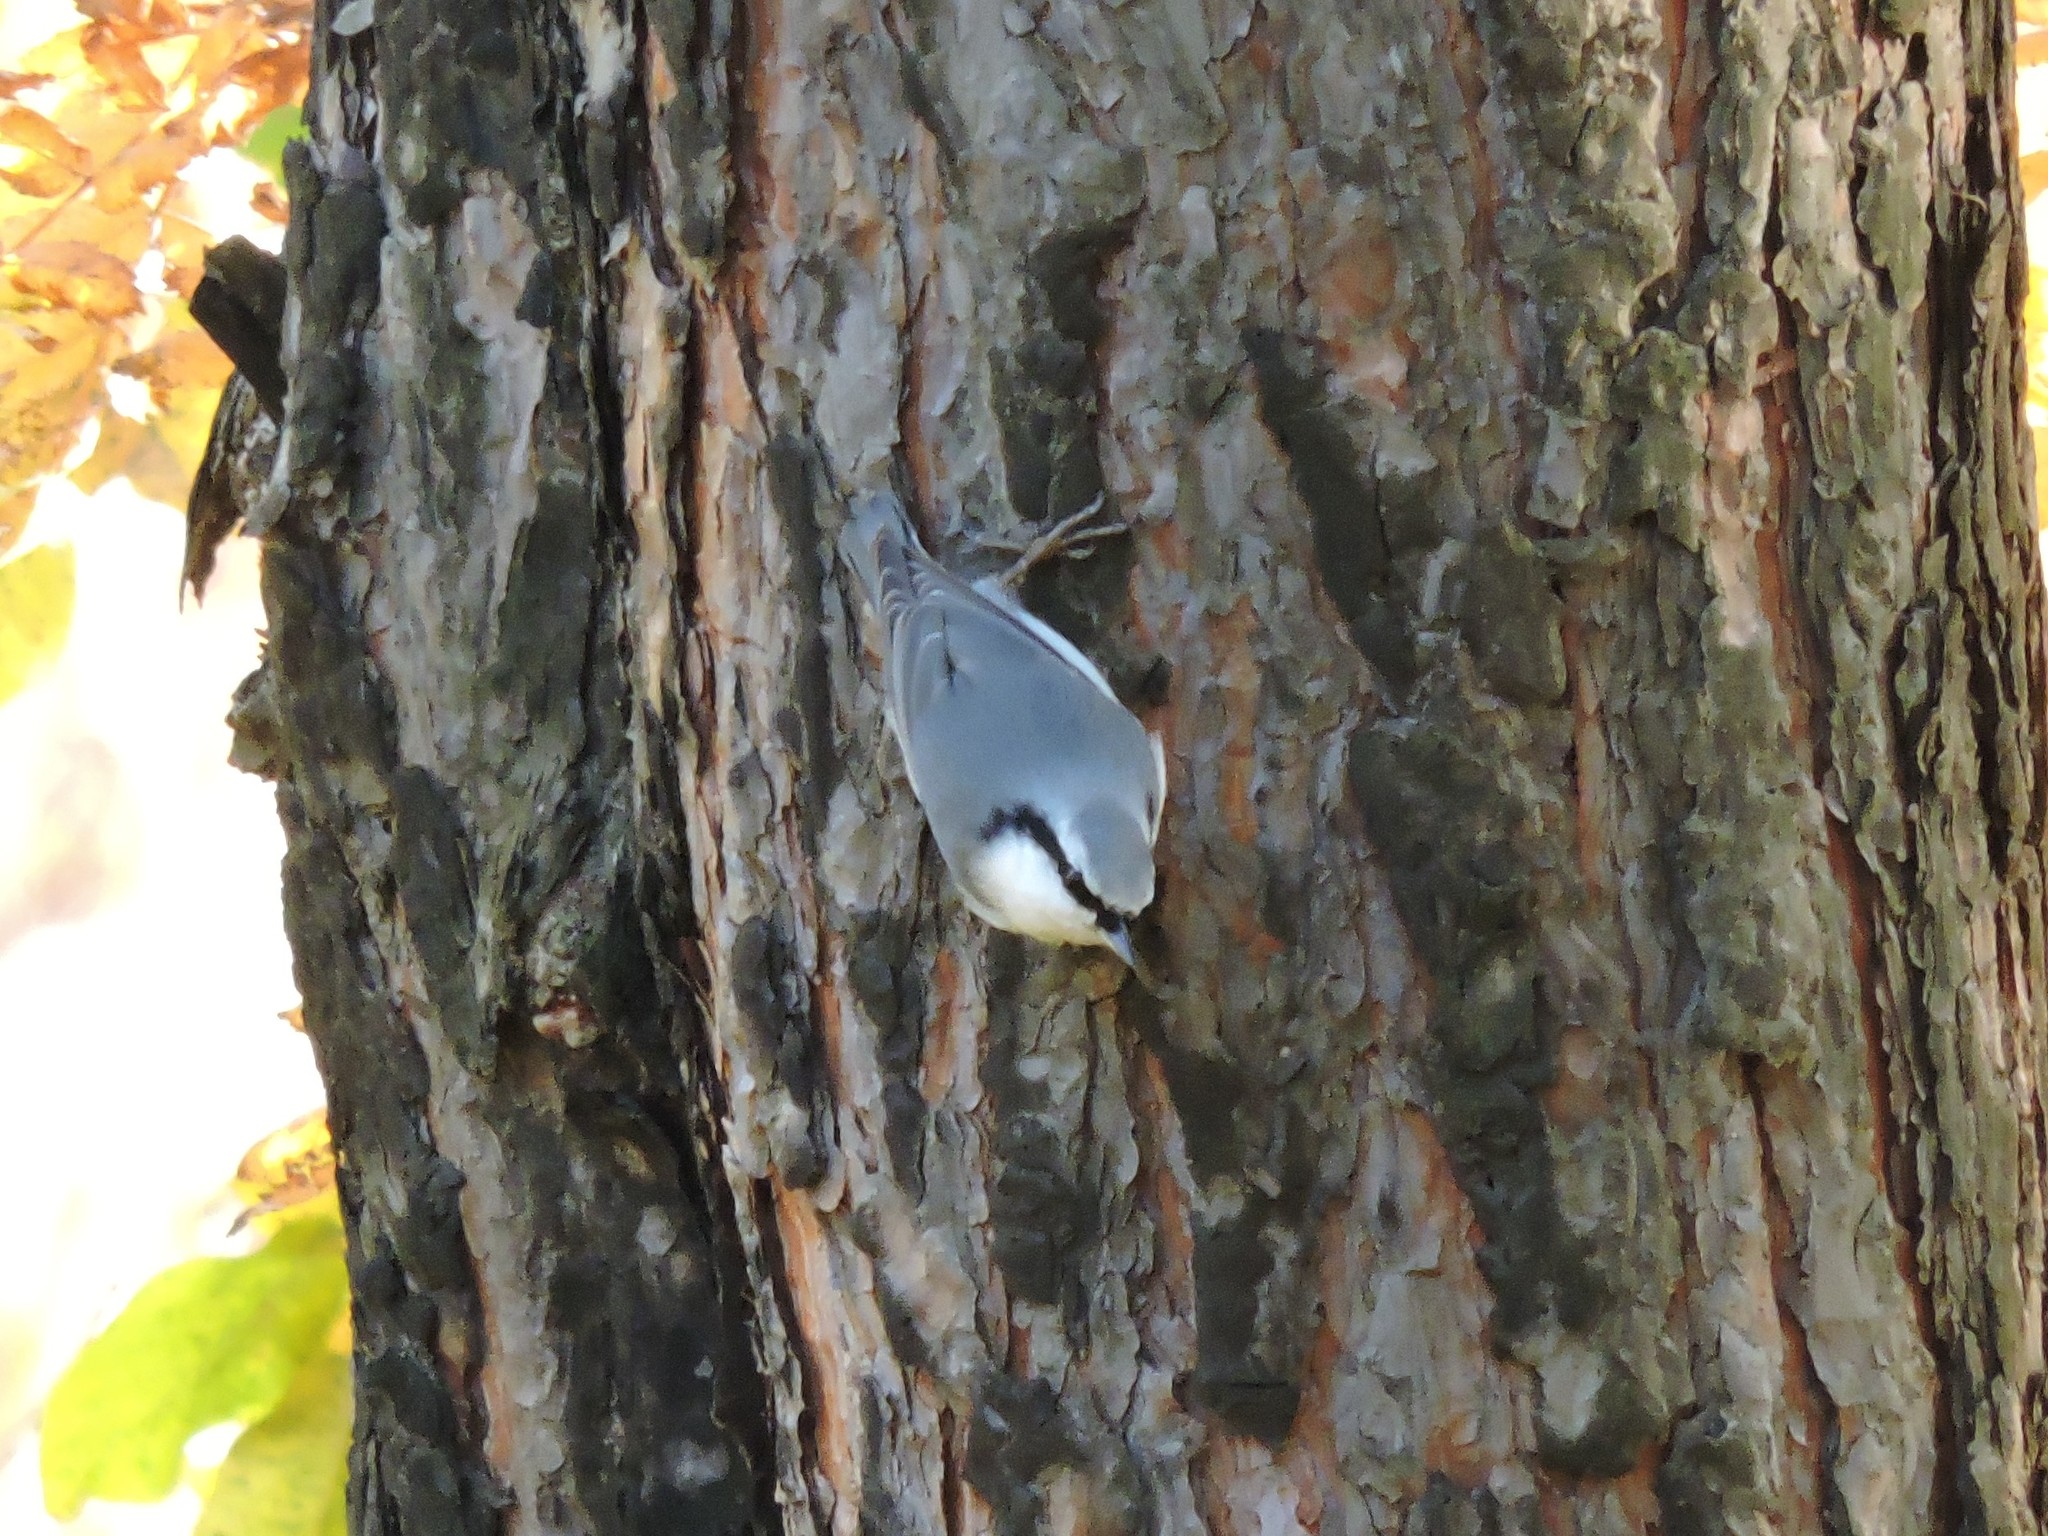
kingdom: Animalia
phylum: Chordata
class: Aves
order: Passeriformes
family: Sittidae
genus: Sitta
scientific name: Sitta europaea
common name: Eurasian nuthatch
